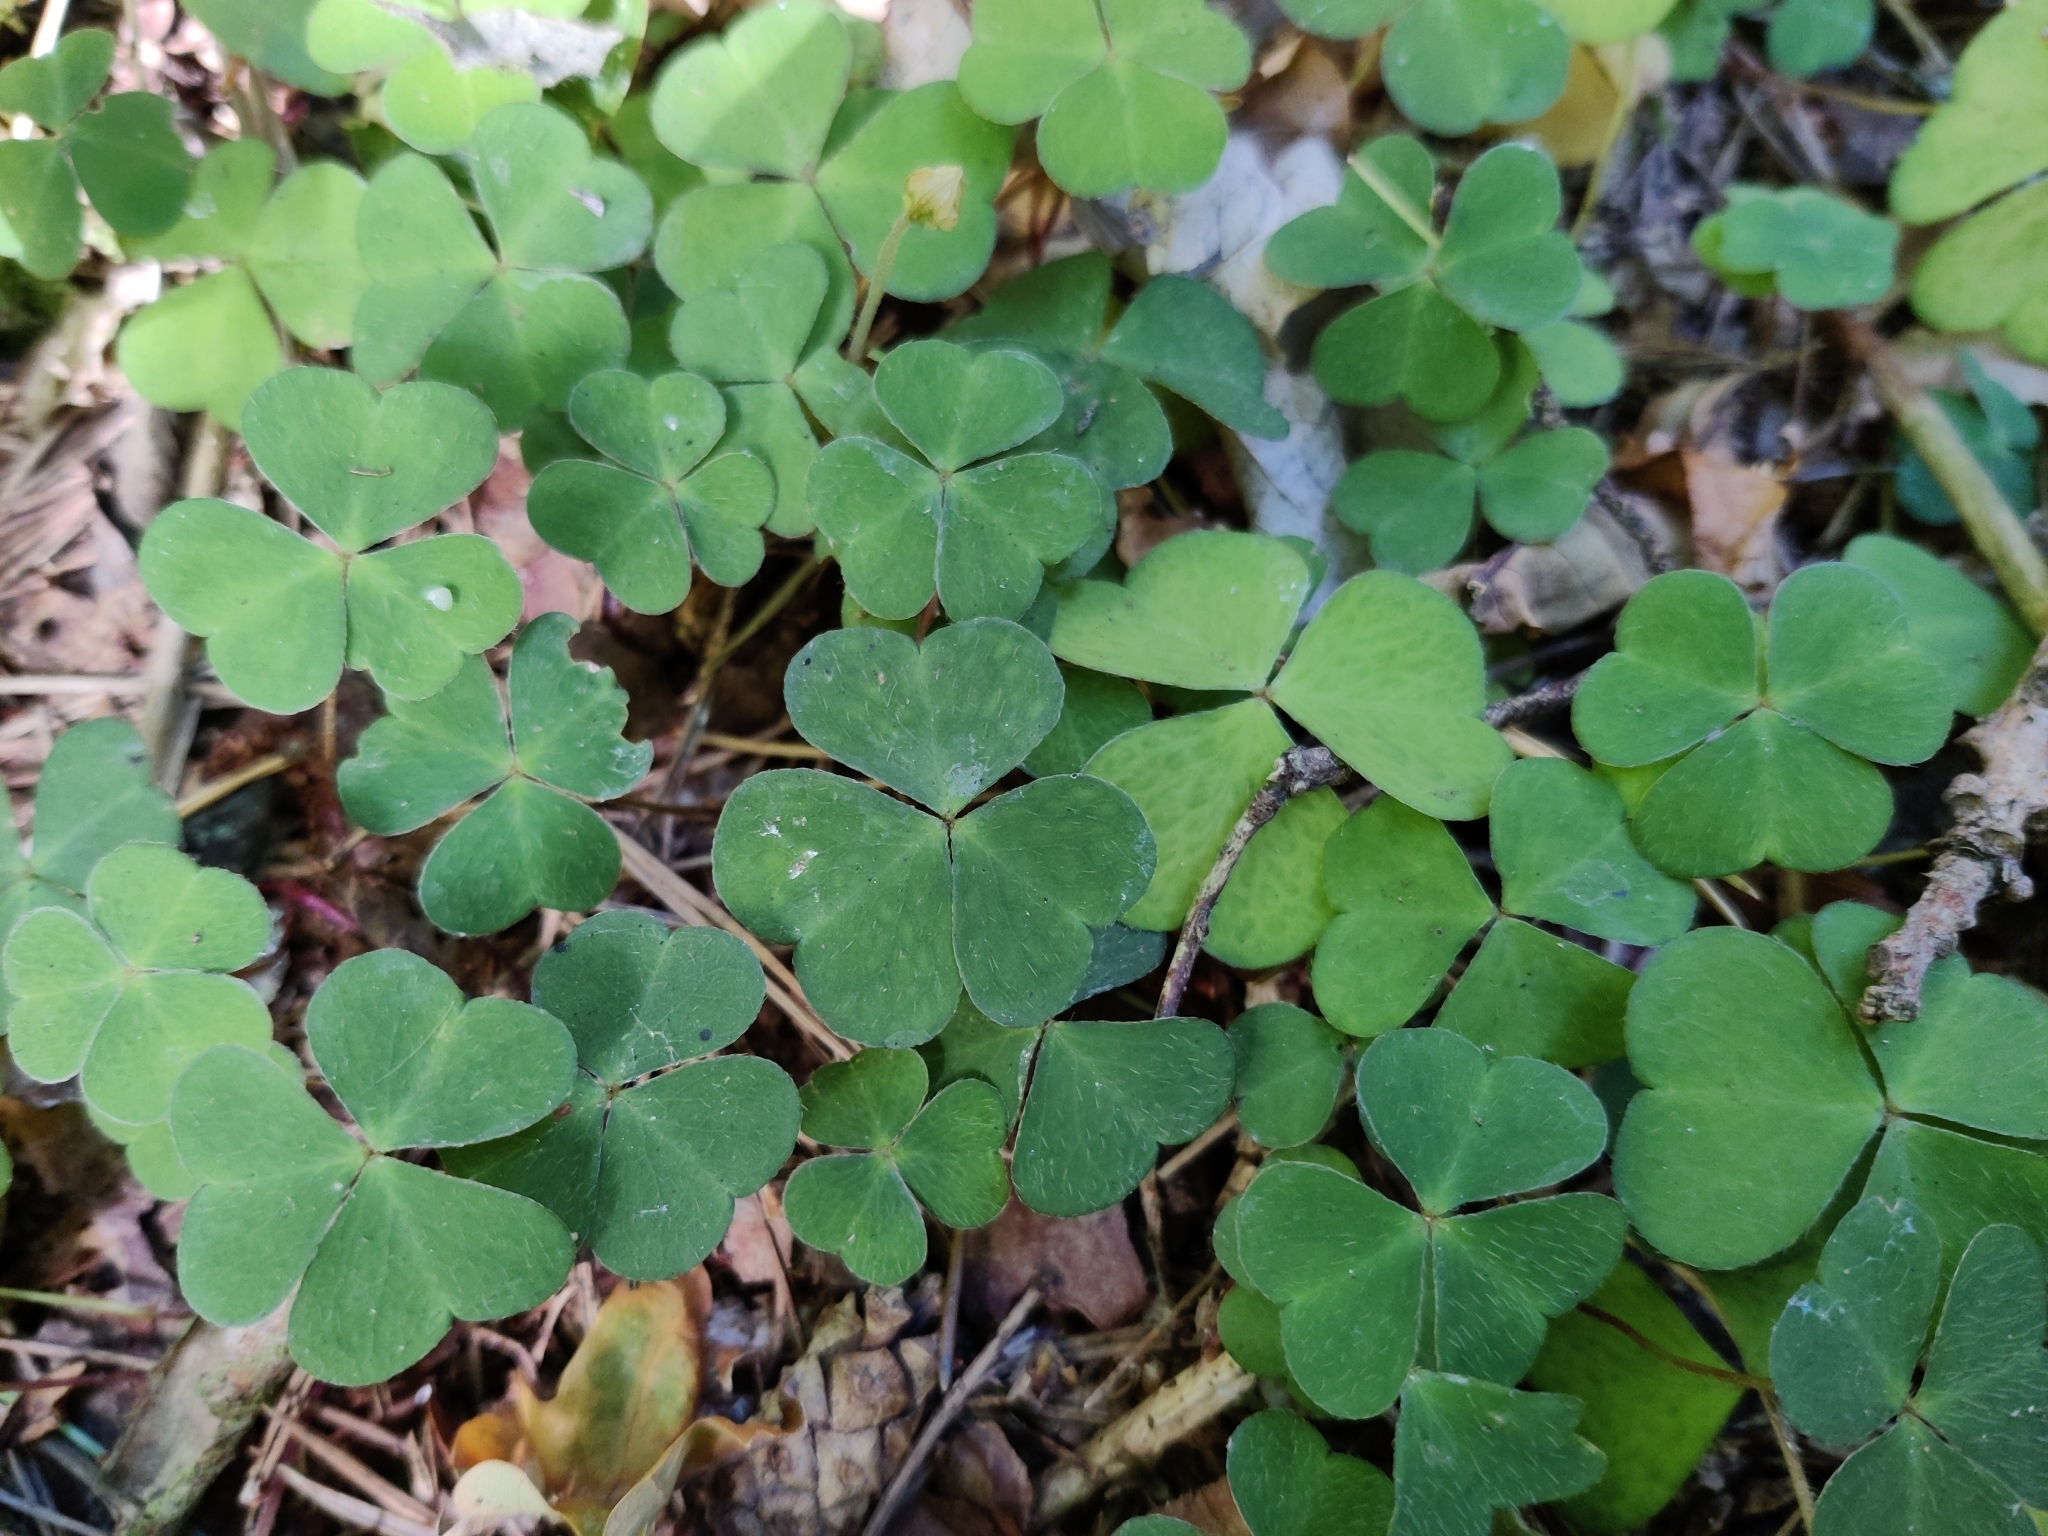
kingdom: Plantae
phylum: Tracheophyta
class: Magnoliopsida
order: Oxalidales
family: Oxalidaceae
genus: Oxalis
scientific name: Oxalis acetosella
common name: Wood-sorrel
